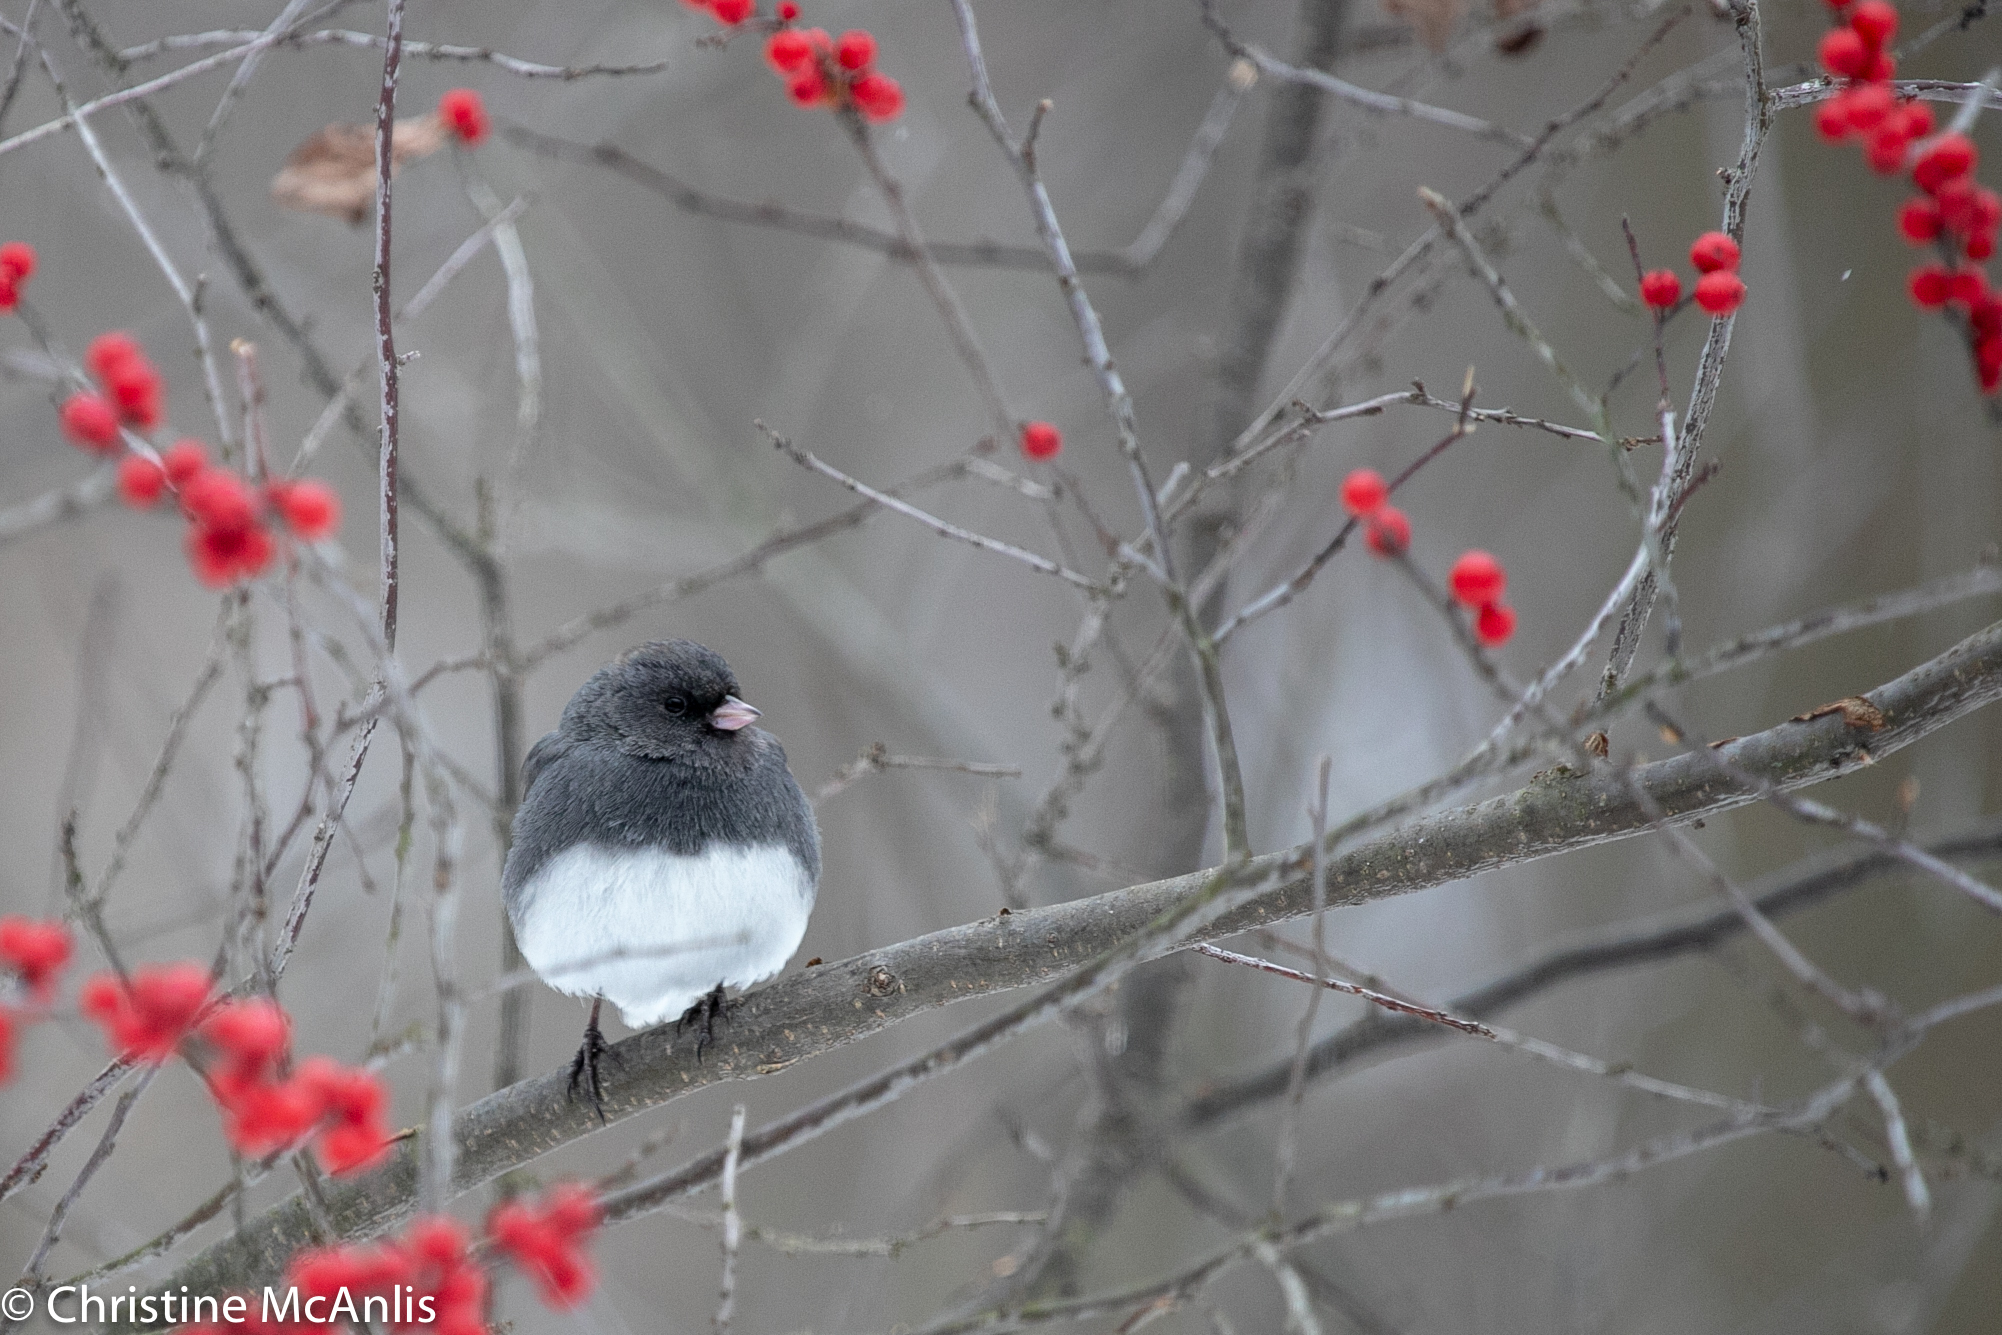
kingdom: Animalia
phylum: Chordata
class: Aves
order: Passeriformes
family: Passerellidae
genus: Junco
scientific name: Junco hyemalis
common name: Dark-eyed junco
